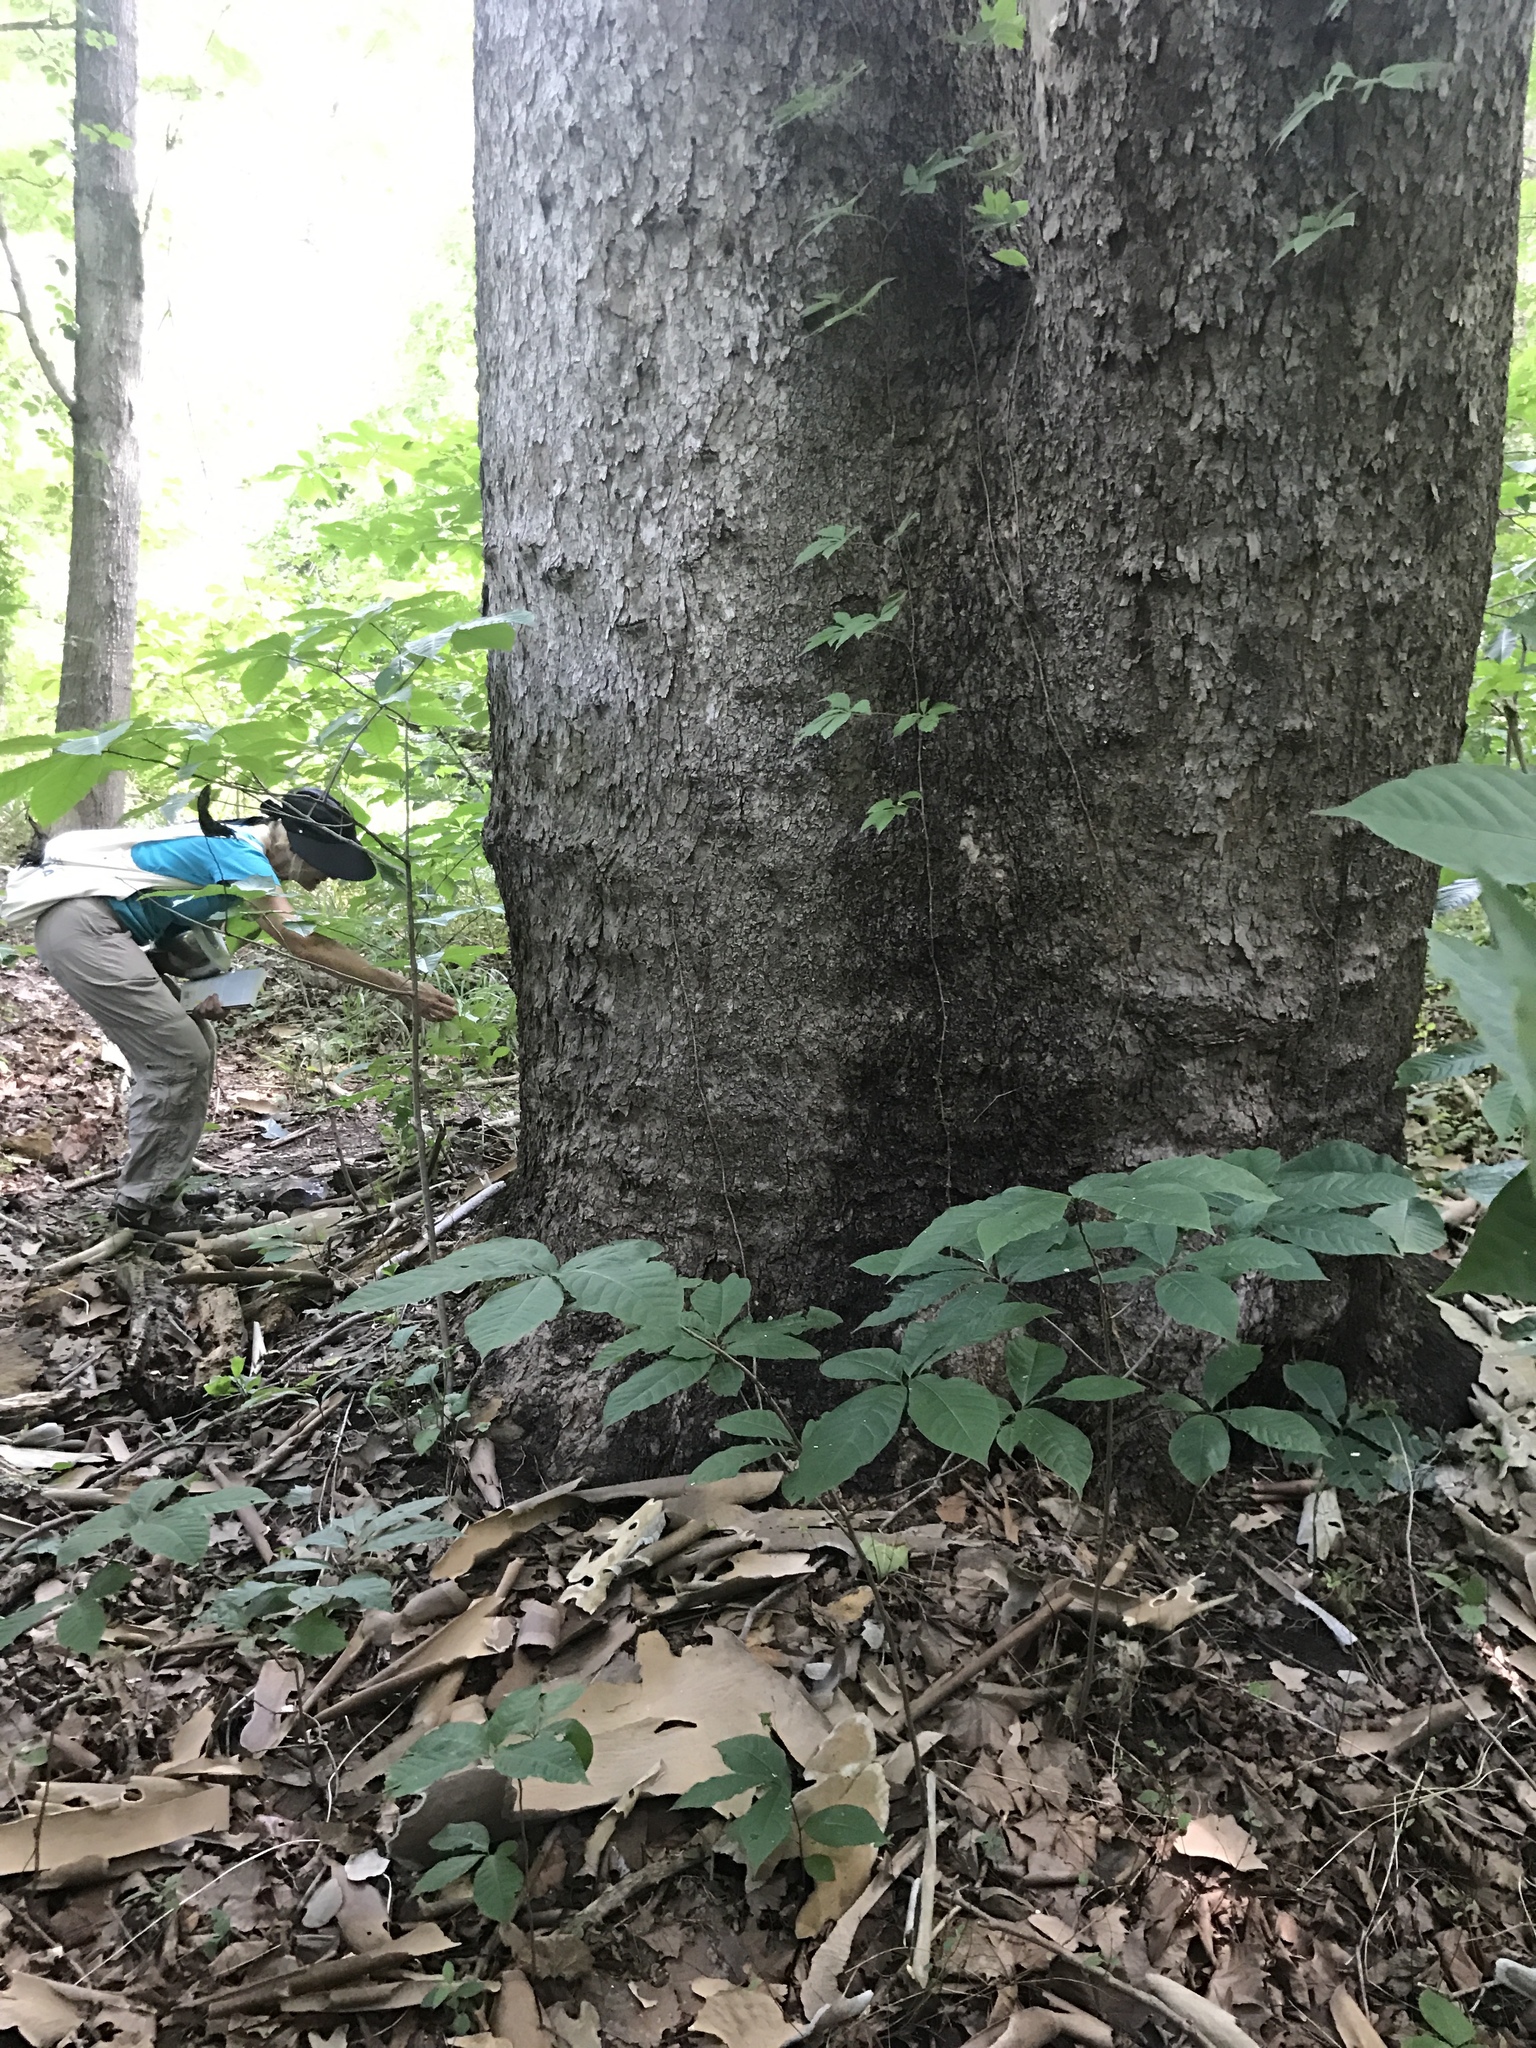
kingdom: Plantae
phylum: Tracheophyta
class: Magnoliopsida
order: Proteales
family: Platanaceae
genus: Platanus
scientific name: Platanus occidentalis
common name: American sycamore
